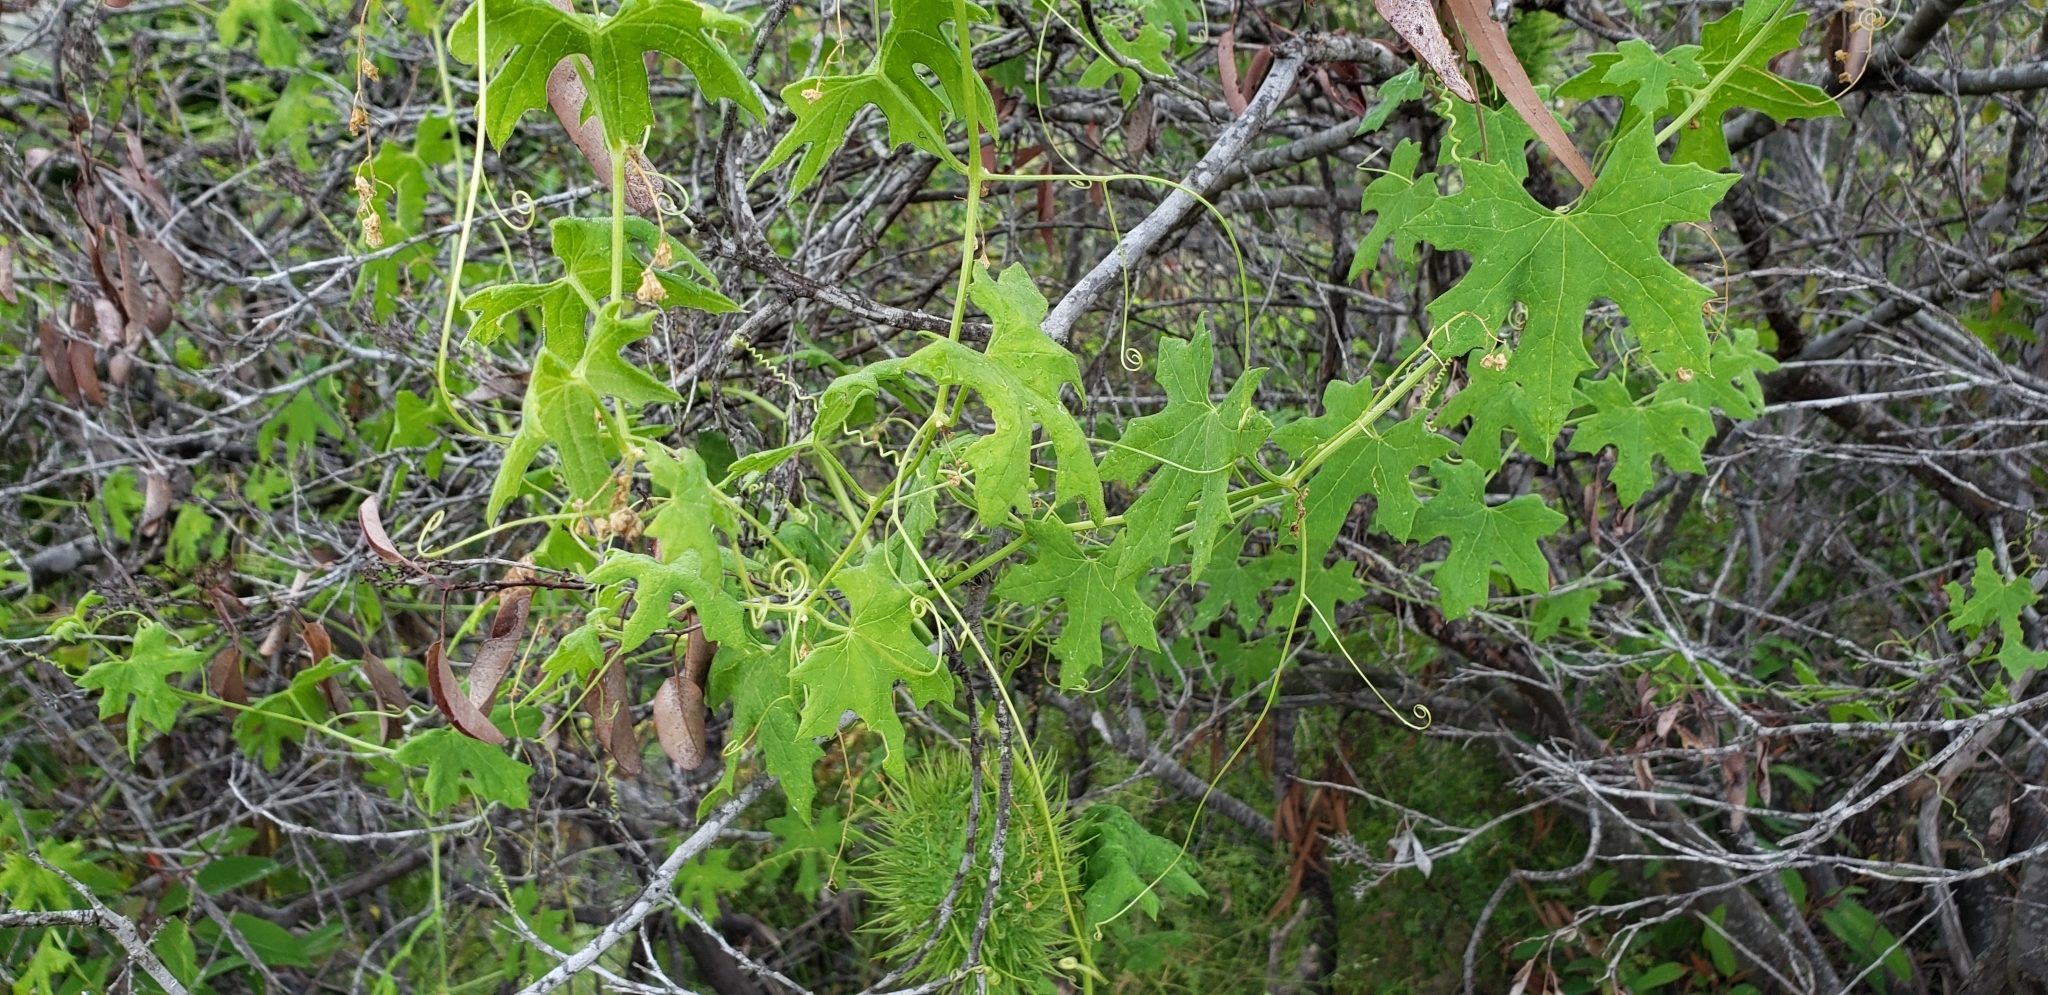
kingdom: Plantae
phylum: Tracheophyta
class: Magnoliopsida
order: Cucurbitales
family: Cucurbitaceae
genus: Marah
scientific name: Marah macrocarpa
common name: Cucamonga manroot
